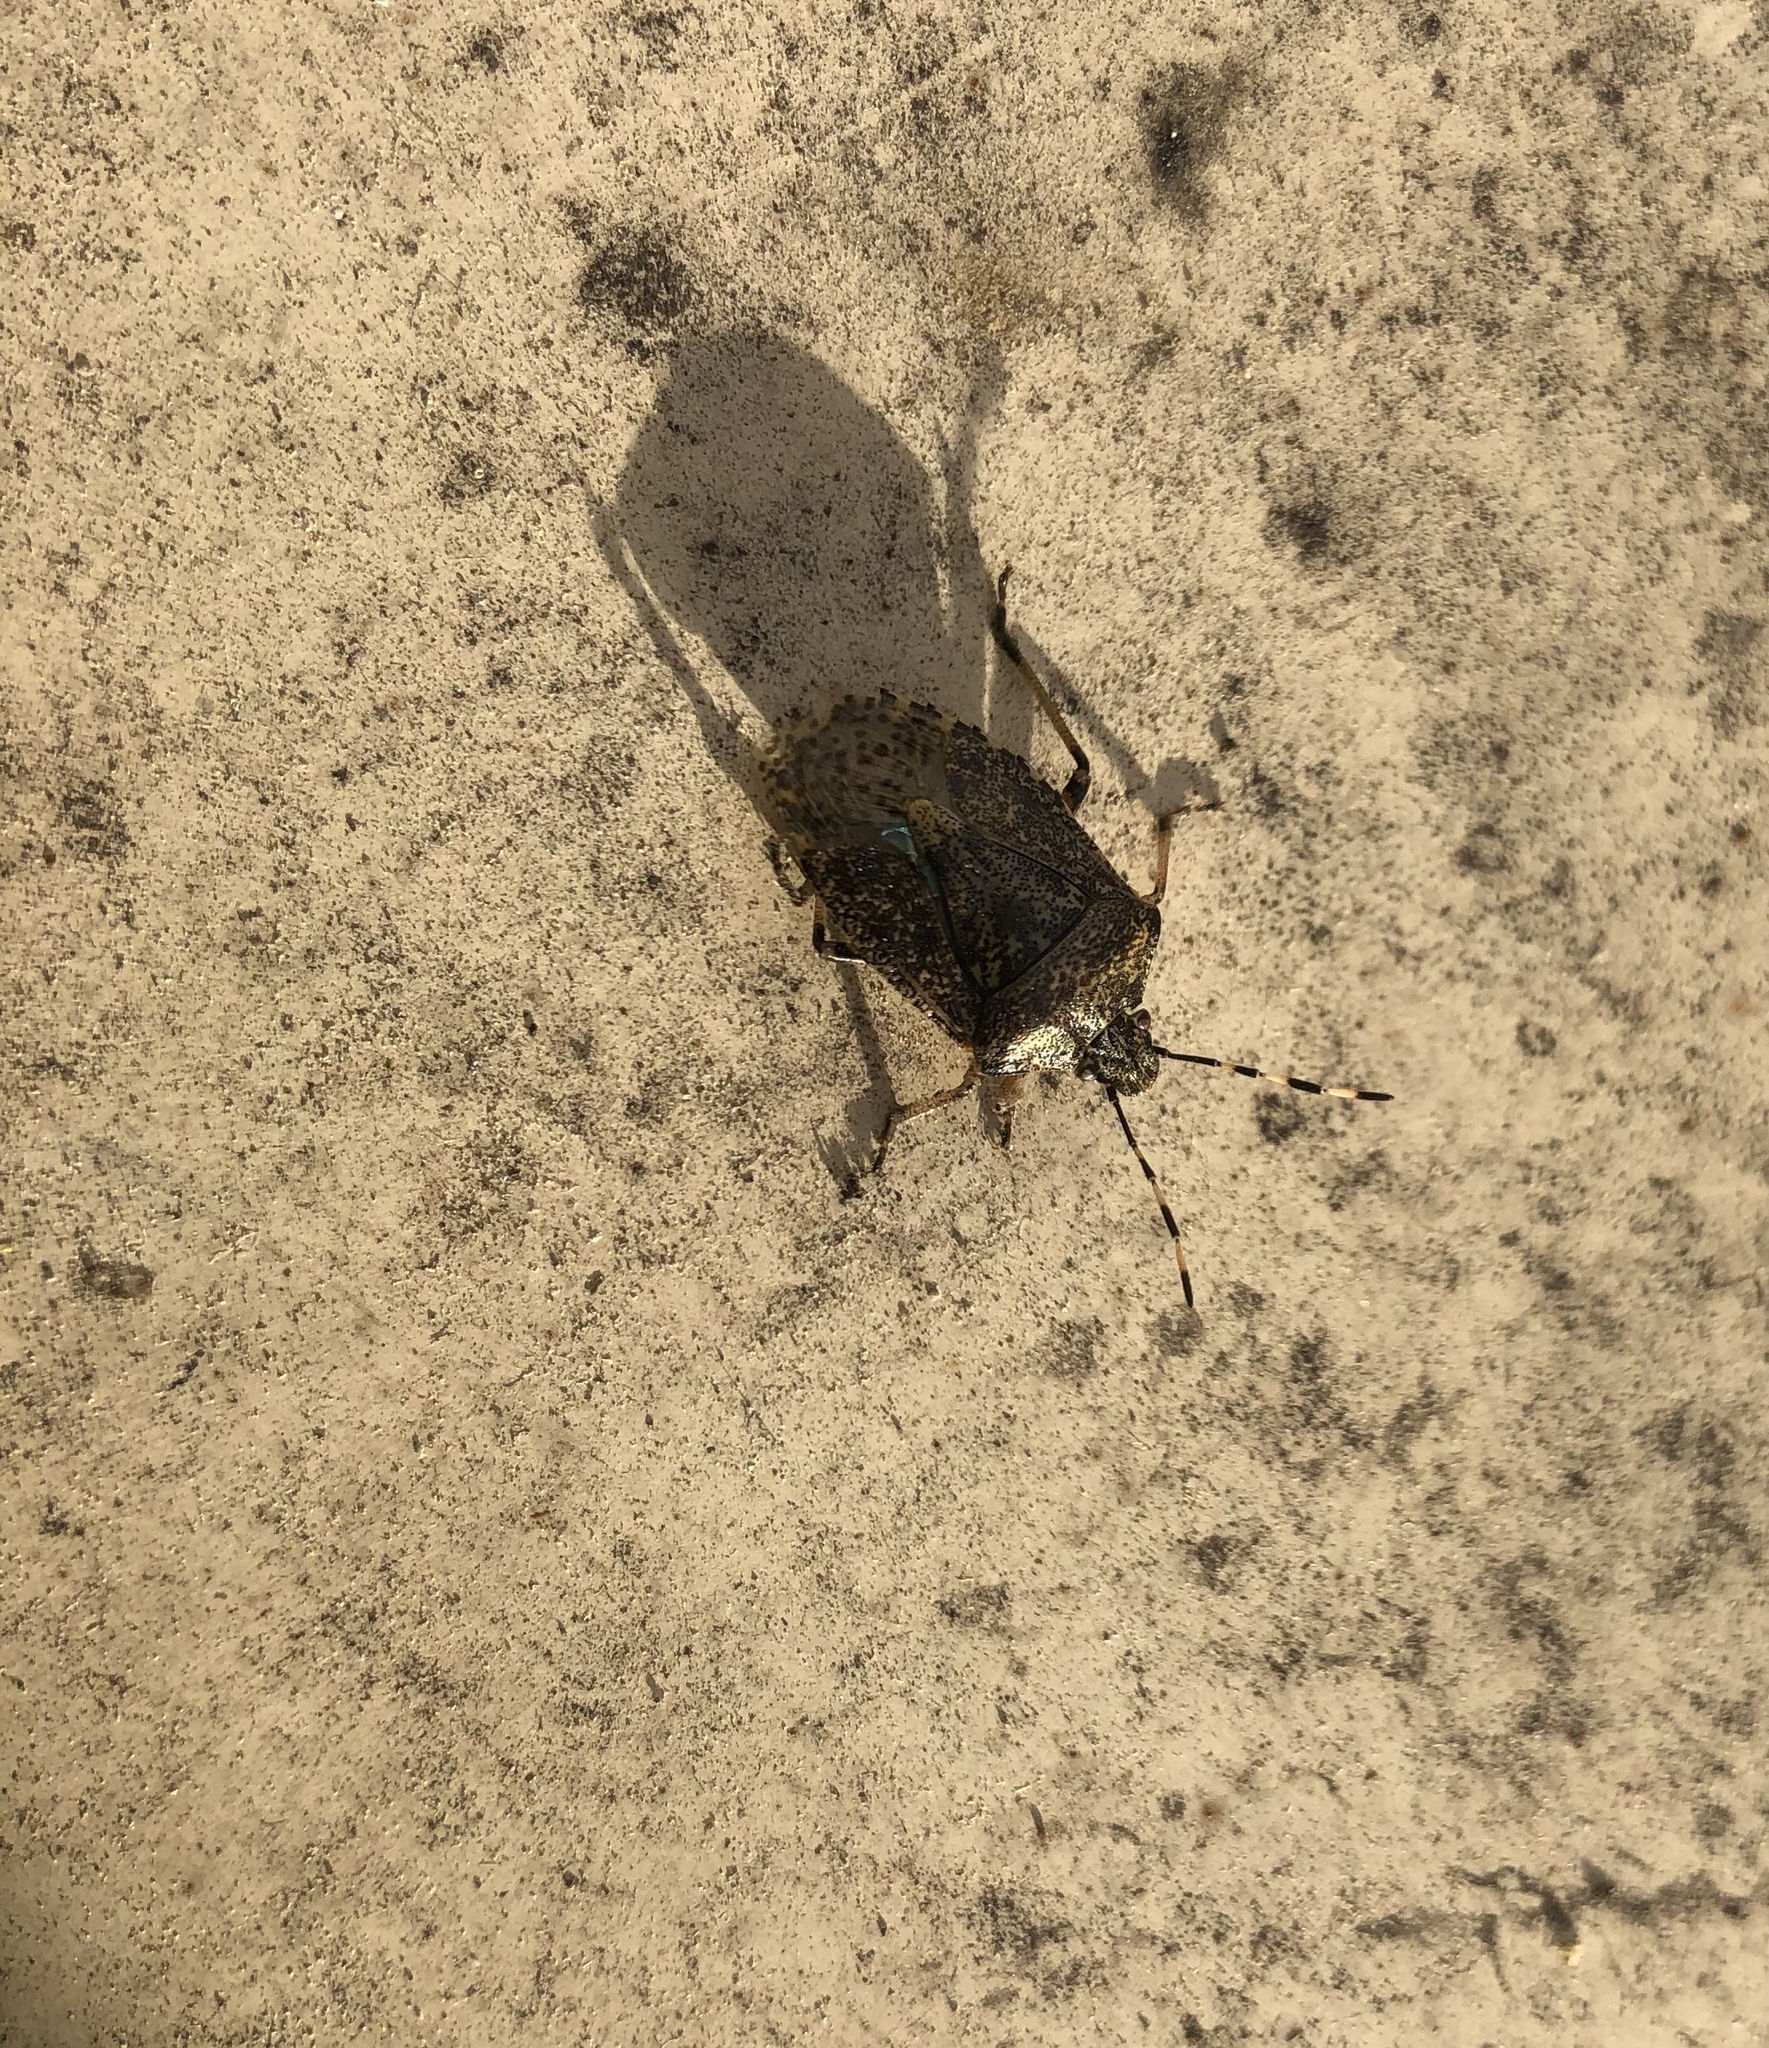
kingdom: Animalia
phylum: Arthropoda
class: Insecta
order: Hemiptera
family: Pentatomidae
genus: Rhaphigaster
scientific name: Rhaphigaster nebulosa
